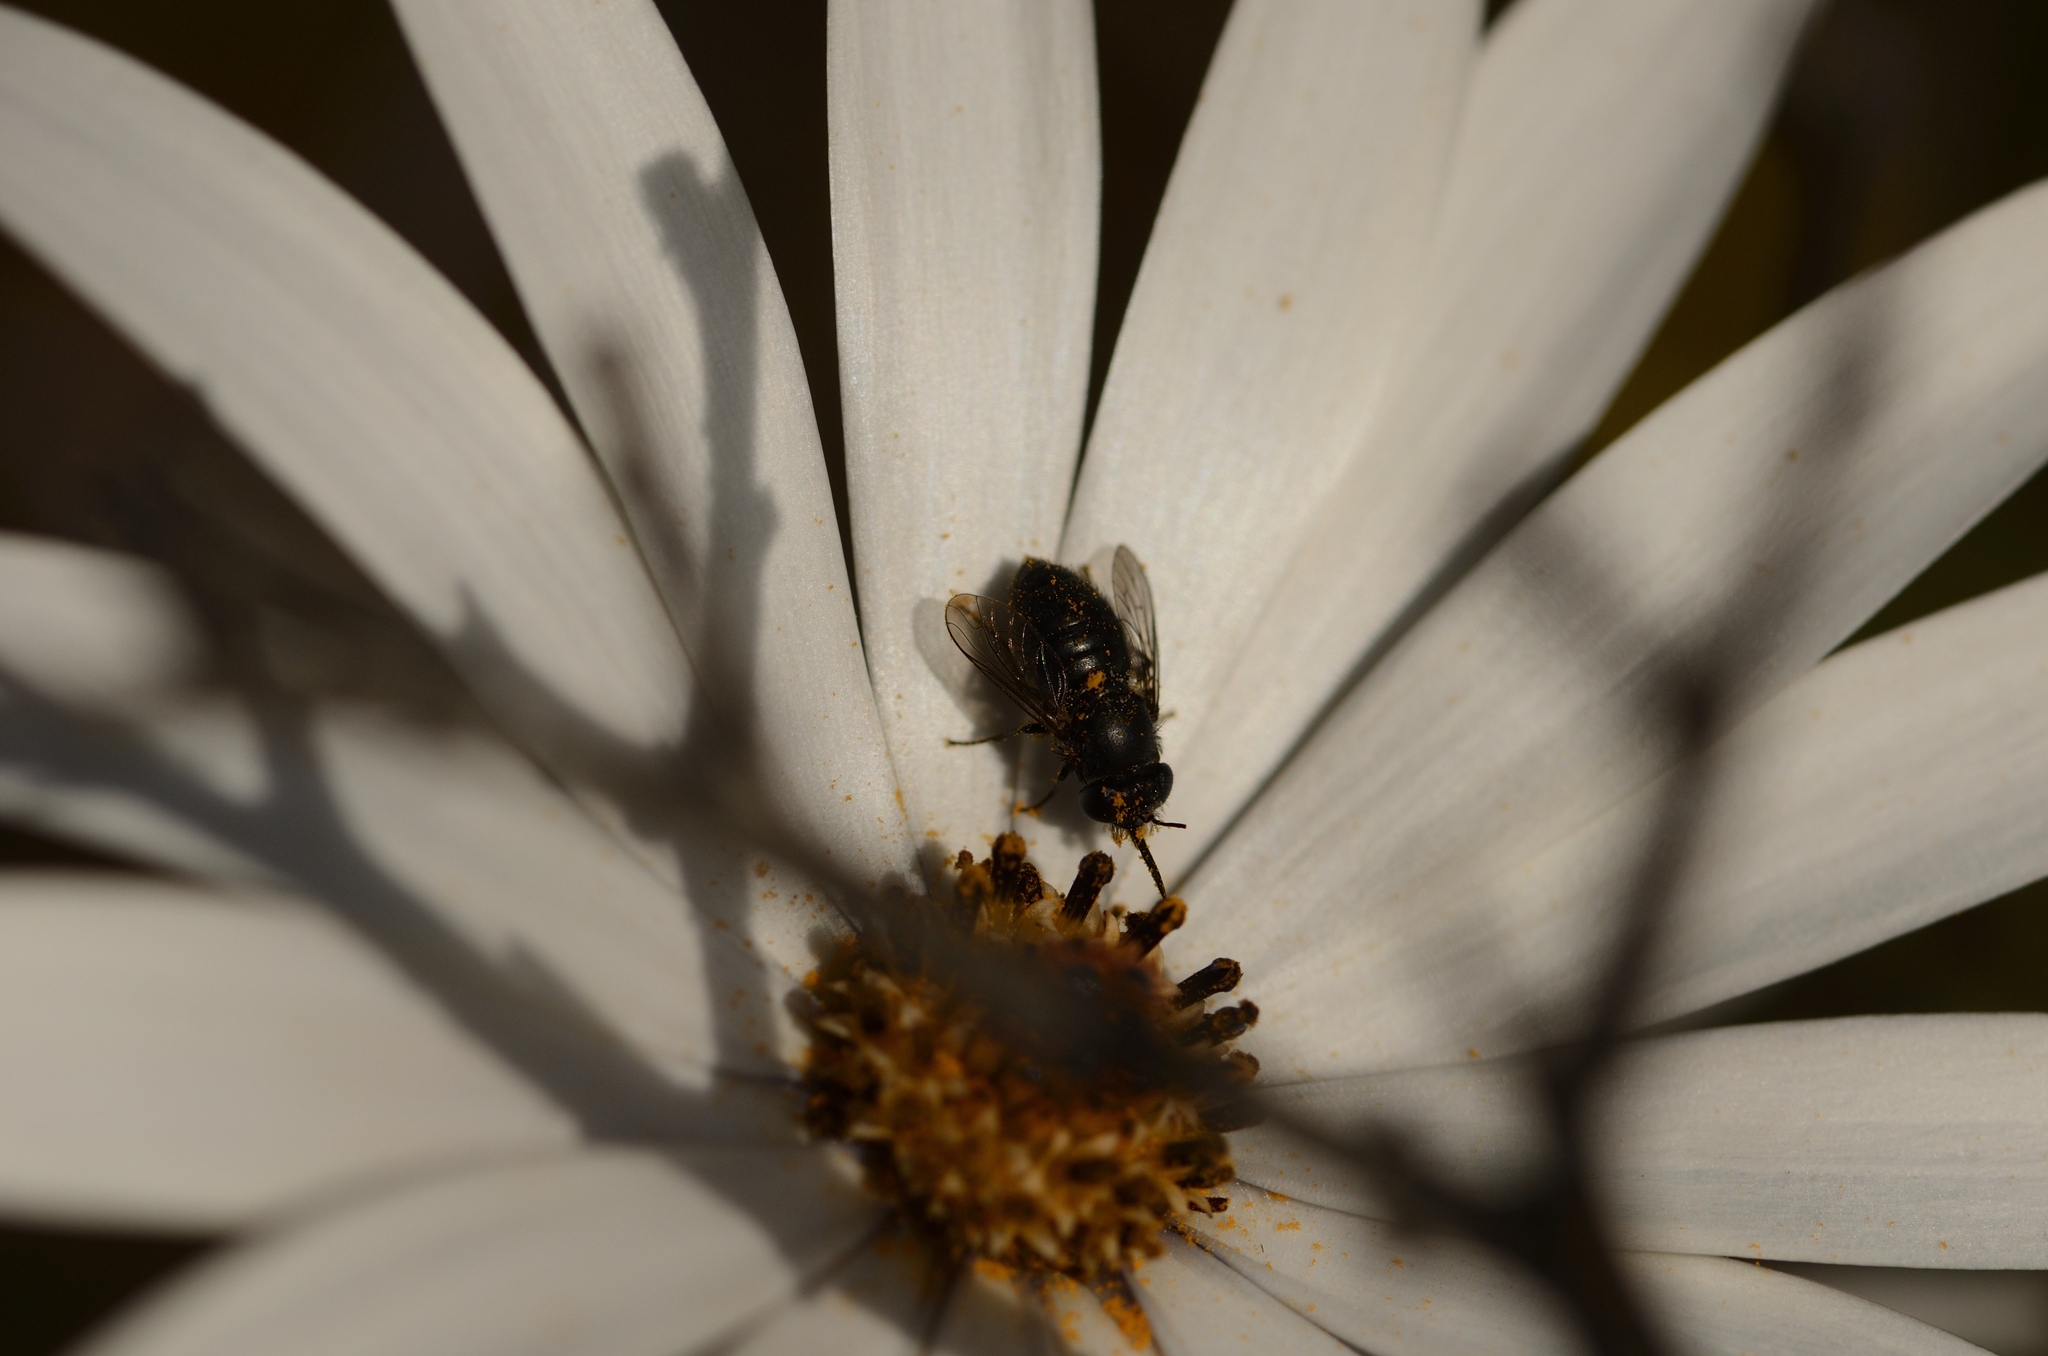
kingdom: Animalia
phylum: Arthropoda
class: Insecta
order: Diptera
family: Bombyliidae
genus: Megapalpus
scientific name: Megapalpus capensis
